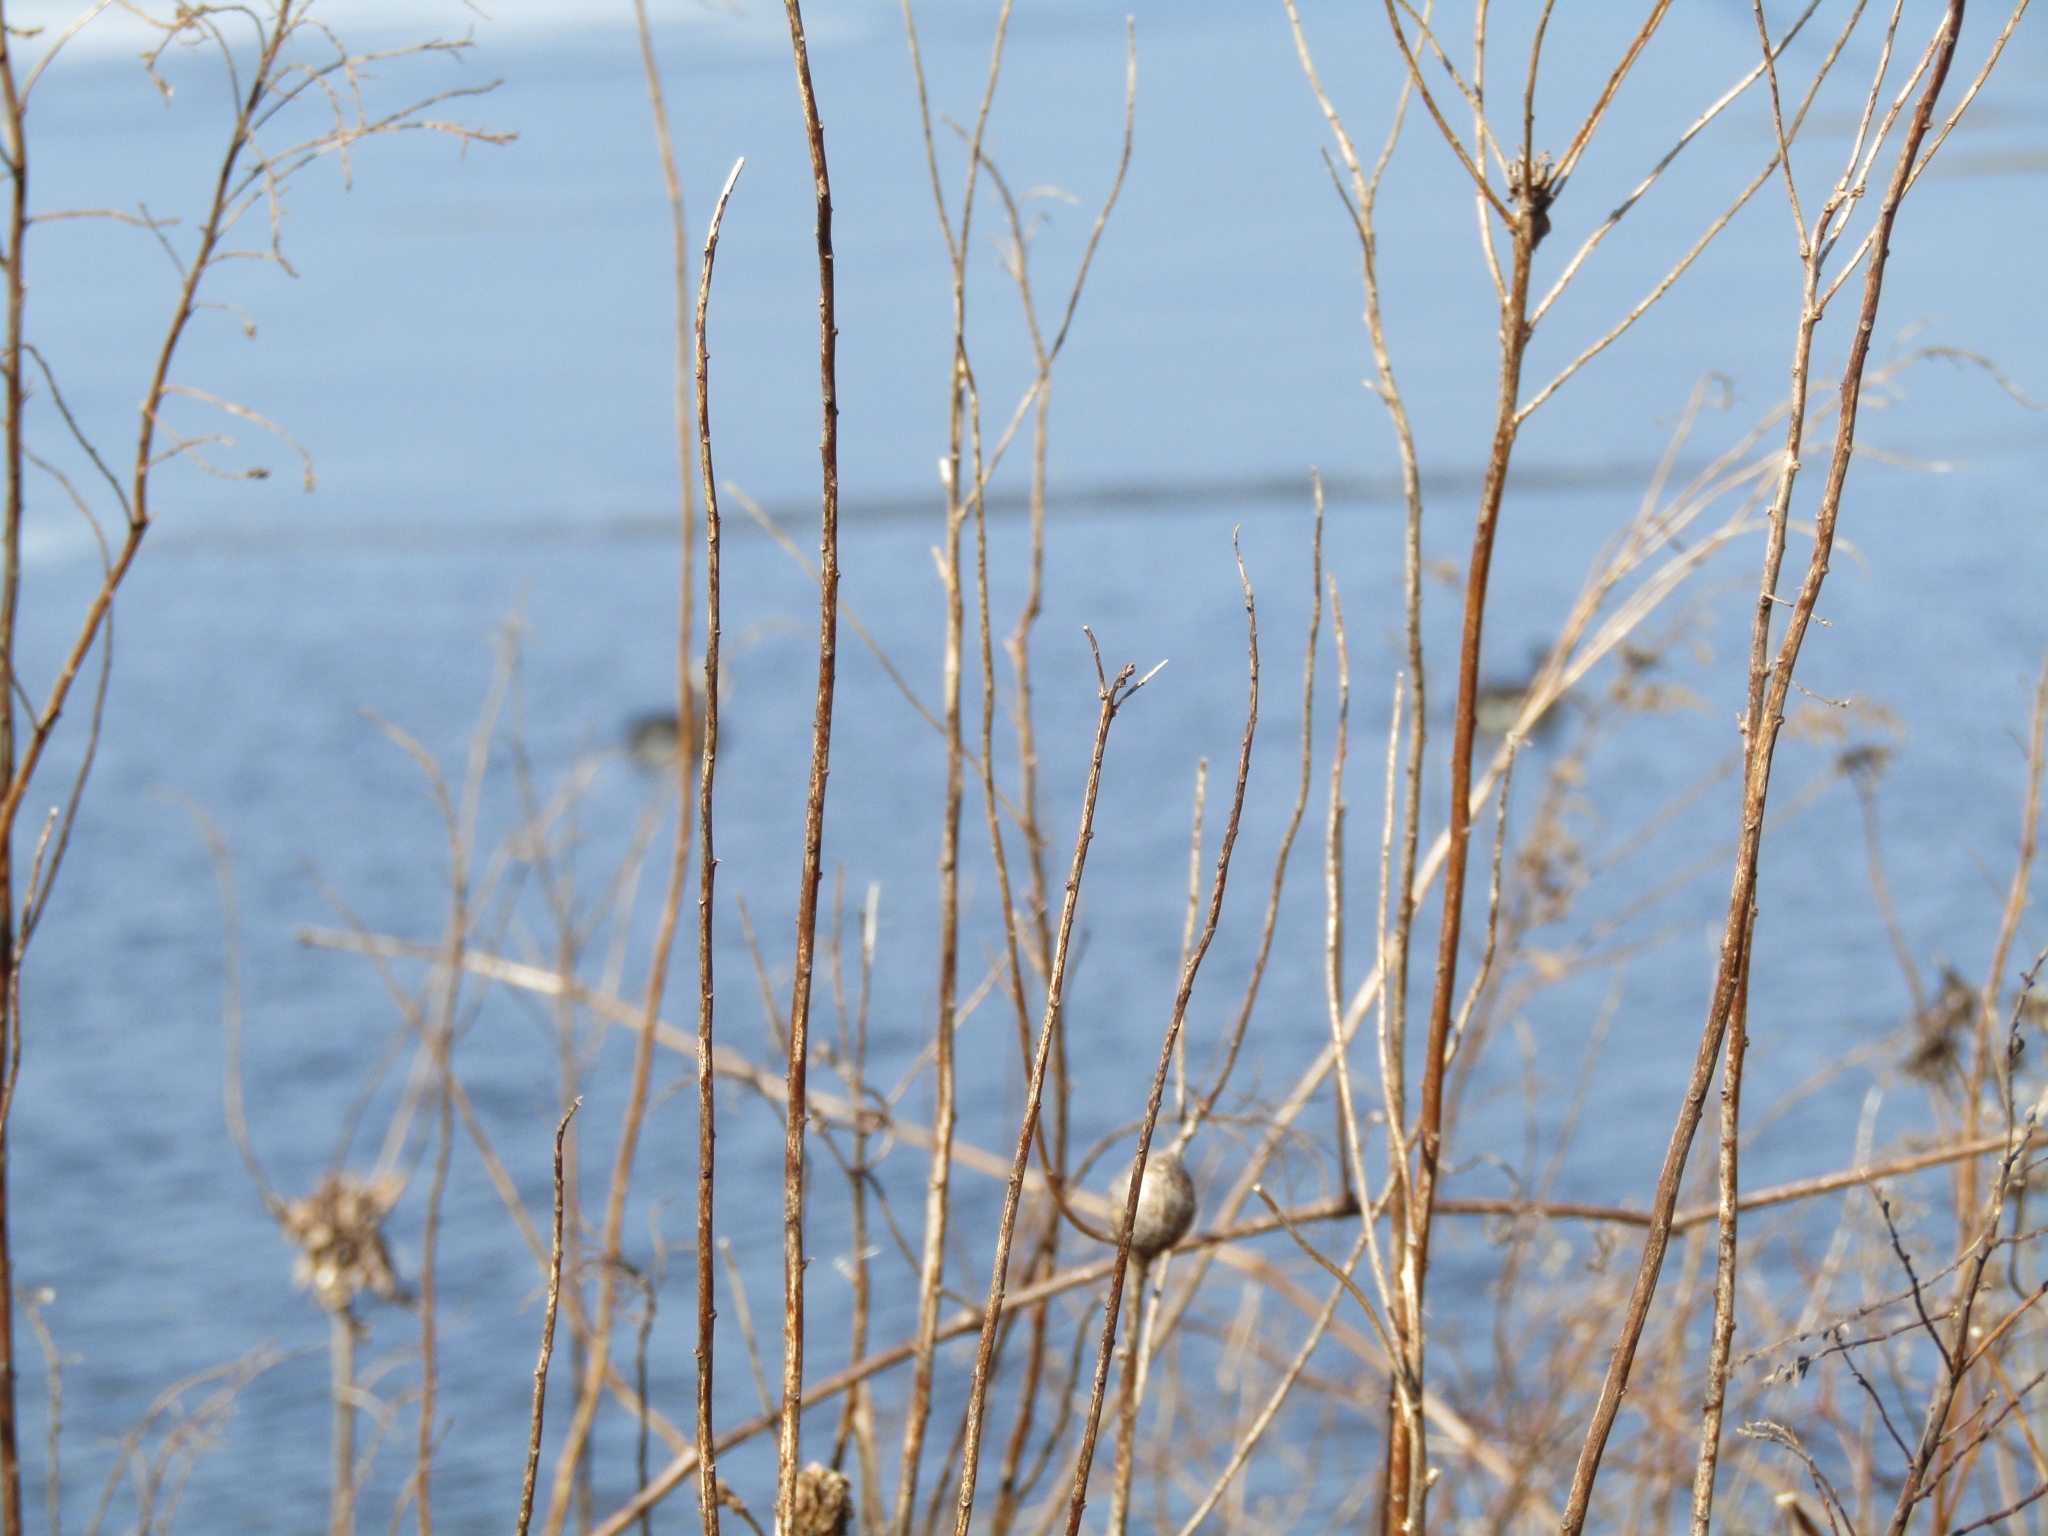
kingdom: Animalia
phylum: Chordata
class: Aves
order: Anseriformes
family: Anatidae
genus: Branta
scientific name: Branta canadensis
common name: Canada goose
